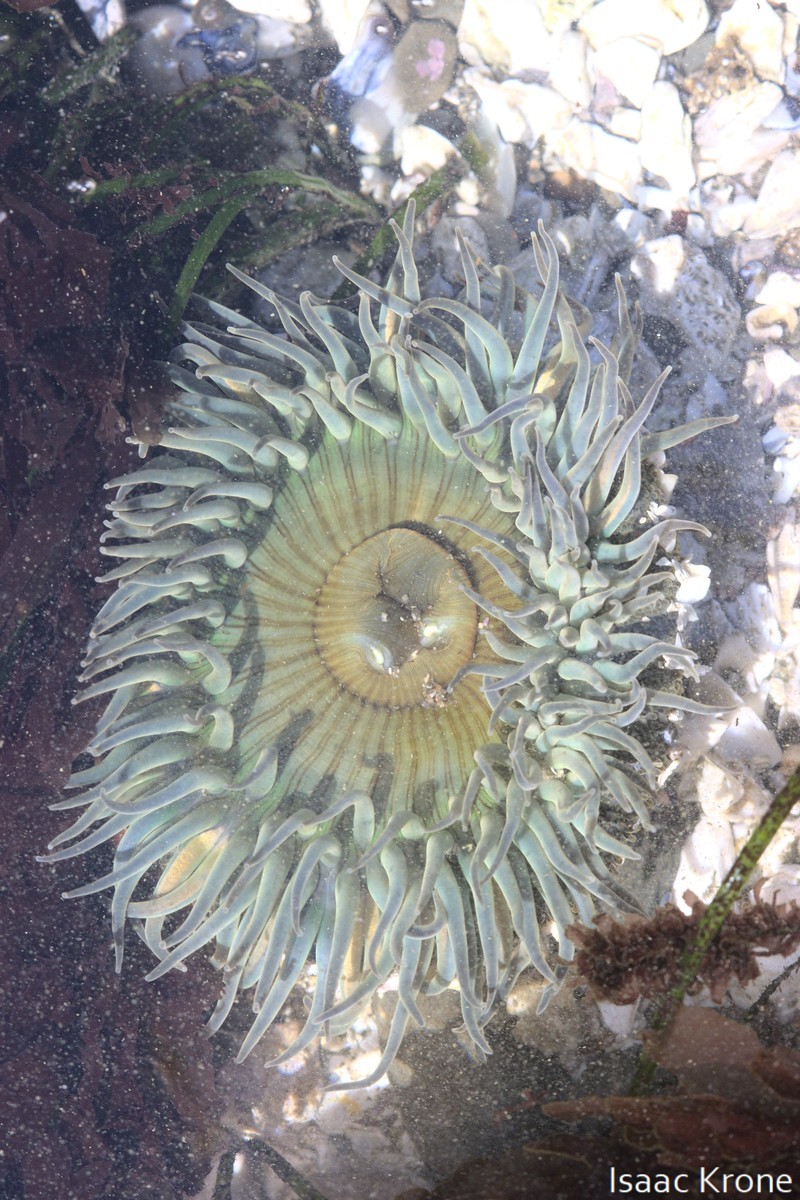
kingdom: Animalia
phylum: Cnidaria
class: Anthozoa
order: Actiniaria
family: Actiniidae
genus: Anthopleura
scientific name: Anthopleura sola
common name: Sun anemone
